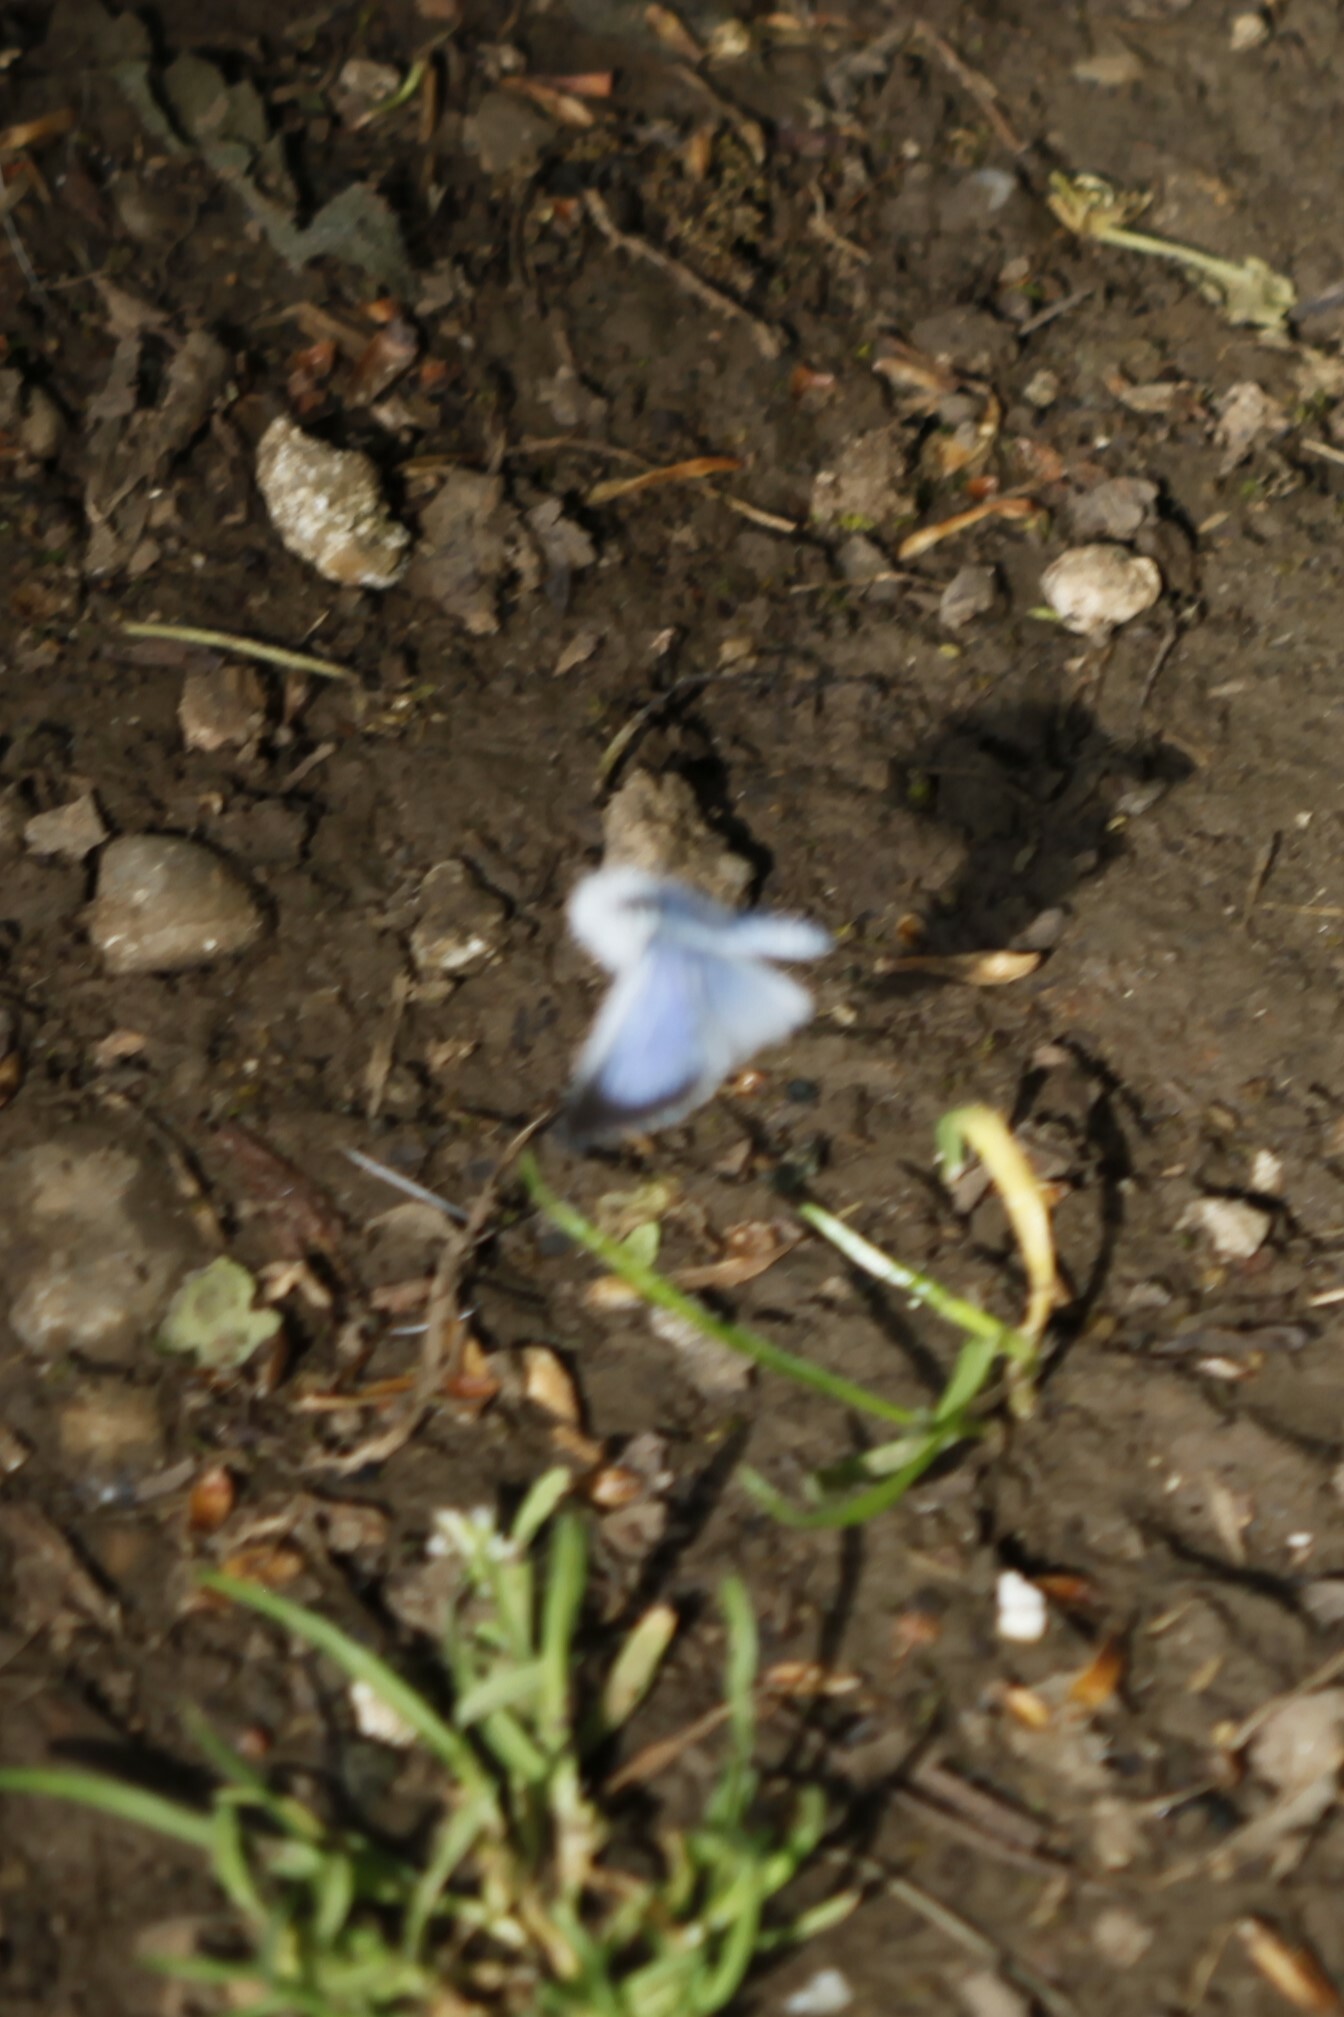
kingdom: Animalia
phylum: Arthropoda
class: Insecta
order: Lepidoptera
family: Lycaenidae
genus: Celastrina
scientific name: Celastrina argiolus
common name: Holly blue
